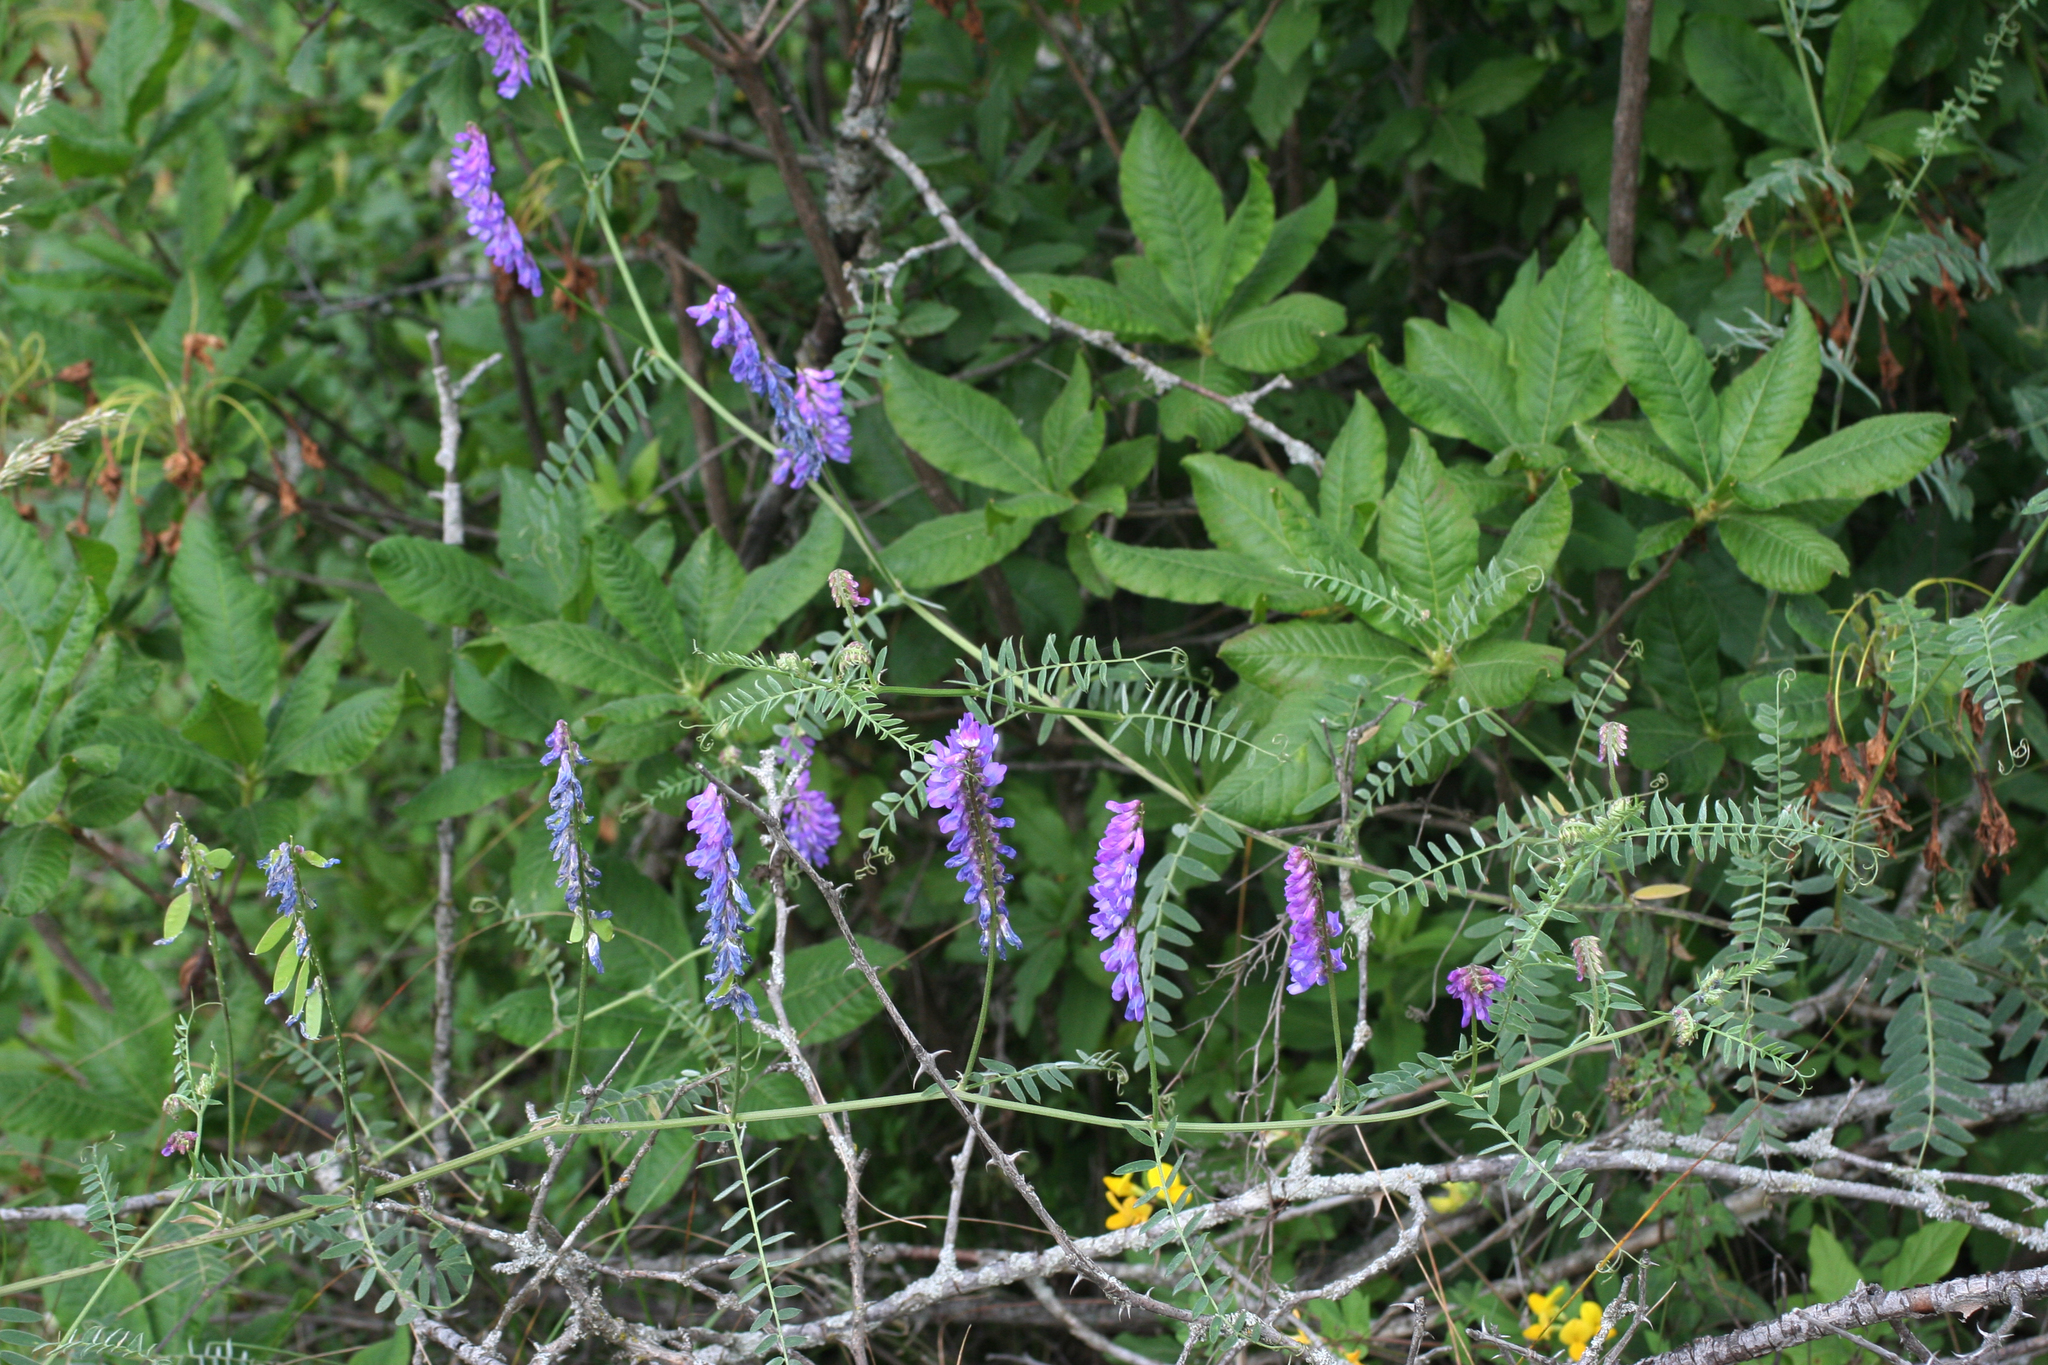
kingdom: Plantae
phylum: Tracheophyta
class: Magnoliopsida
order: Fabales
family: Fabaceae
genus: Vicia
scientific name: Vicia cracca
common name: Bird vetch
